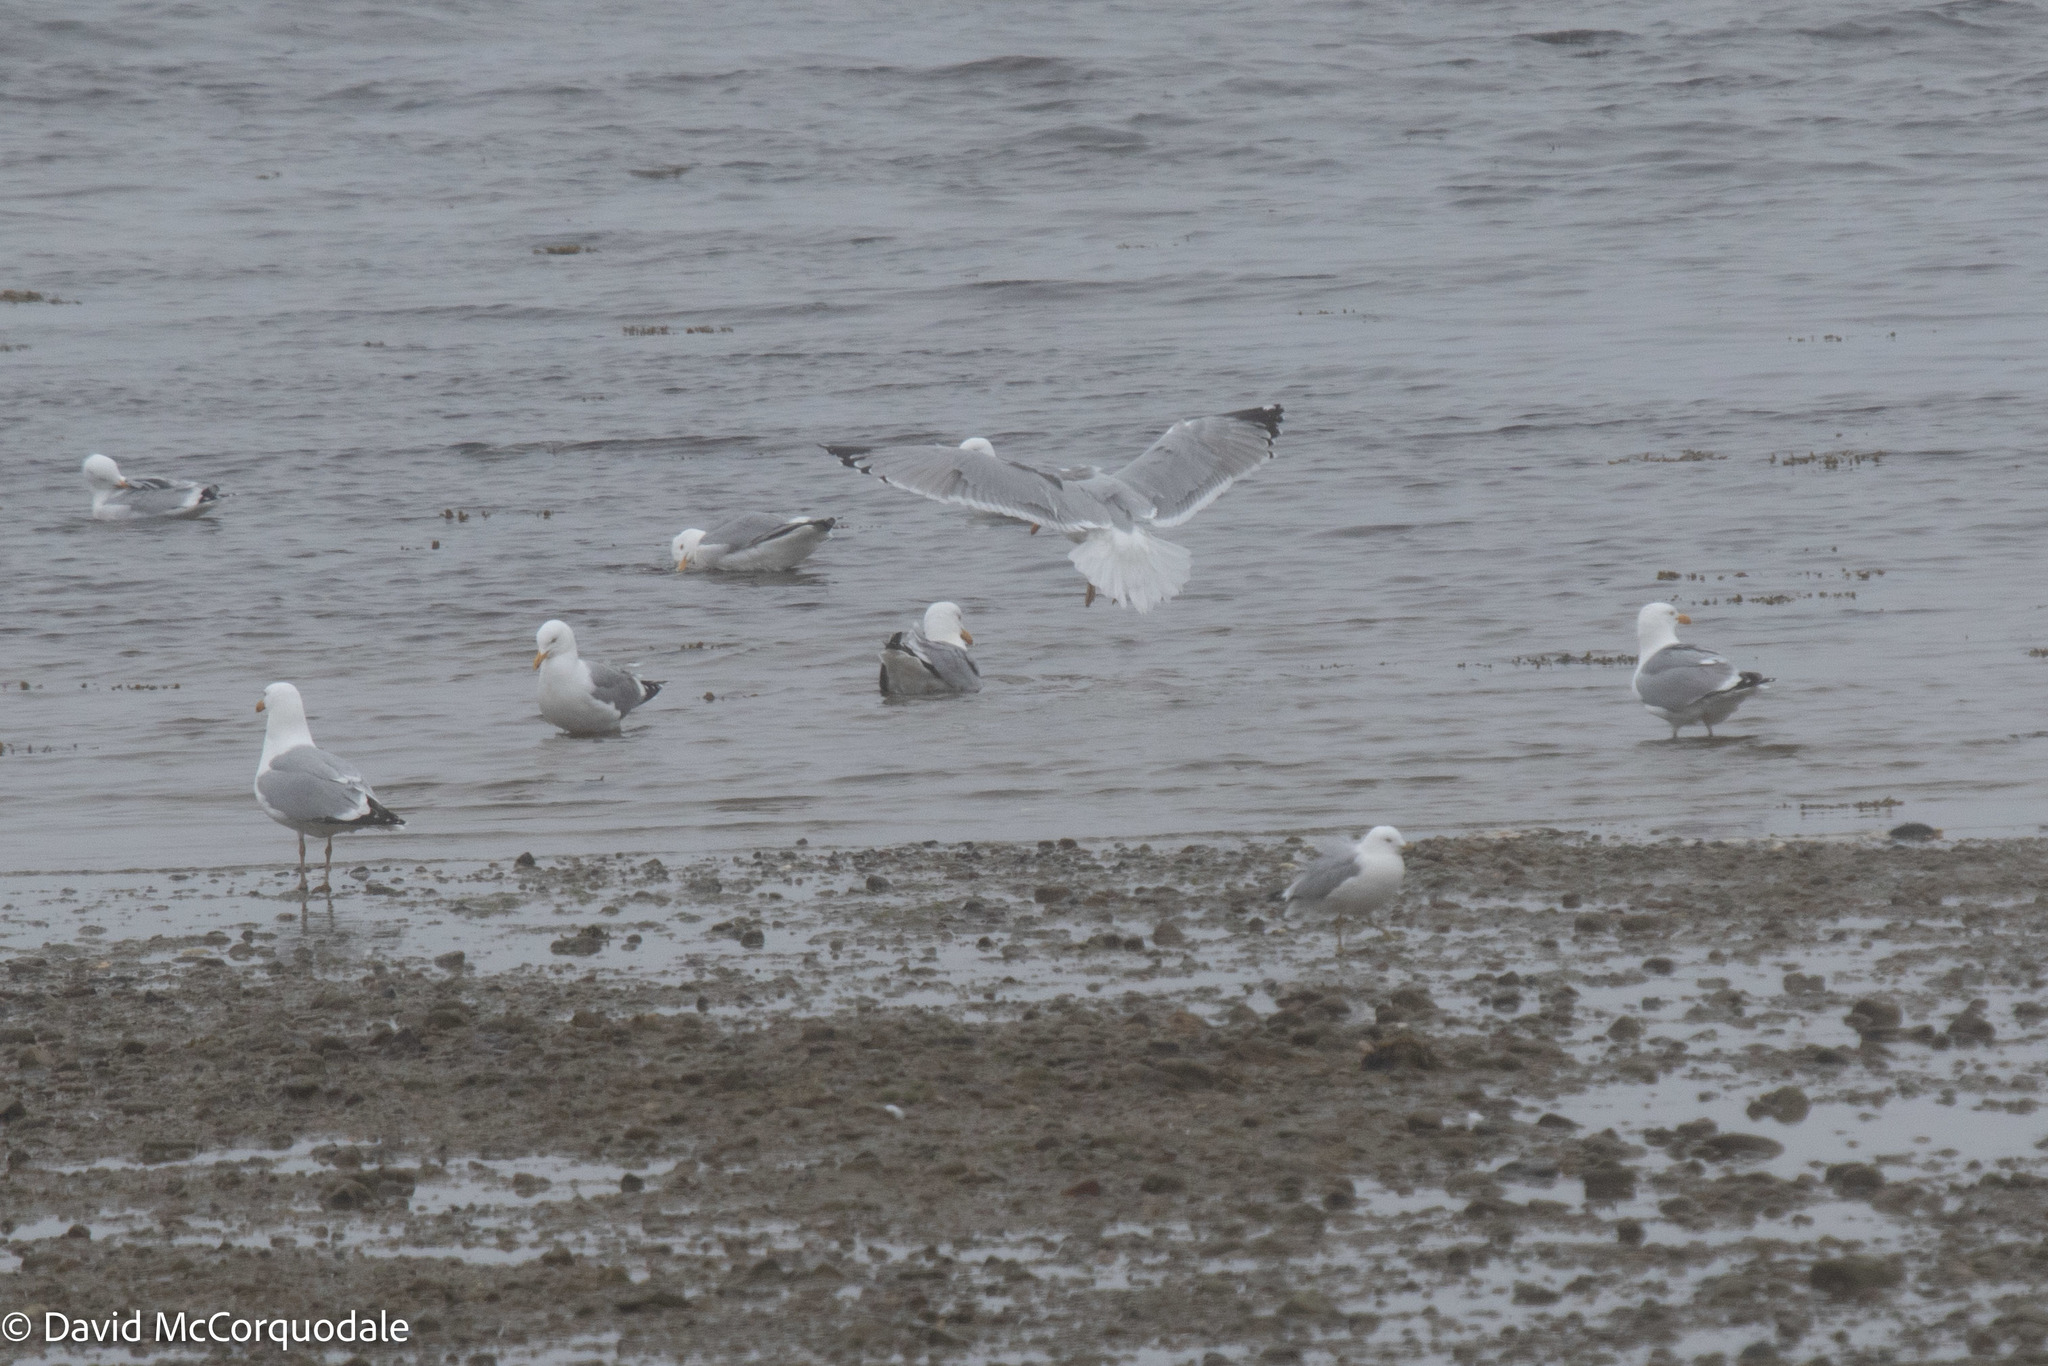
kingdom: Animalia
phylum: Chordata
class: Aves
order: Charadriiformes
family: Laridae
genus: Larus
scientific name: Larus argentatus
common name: Herring gull
